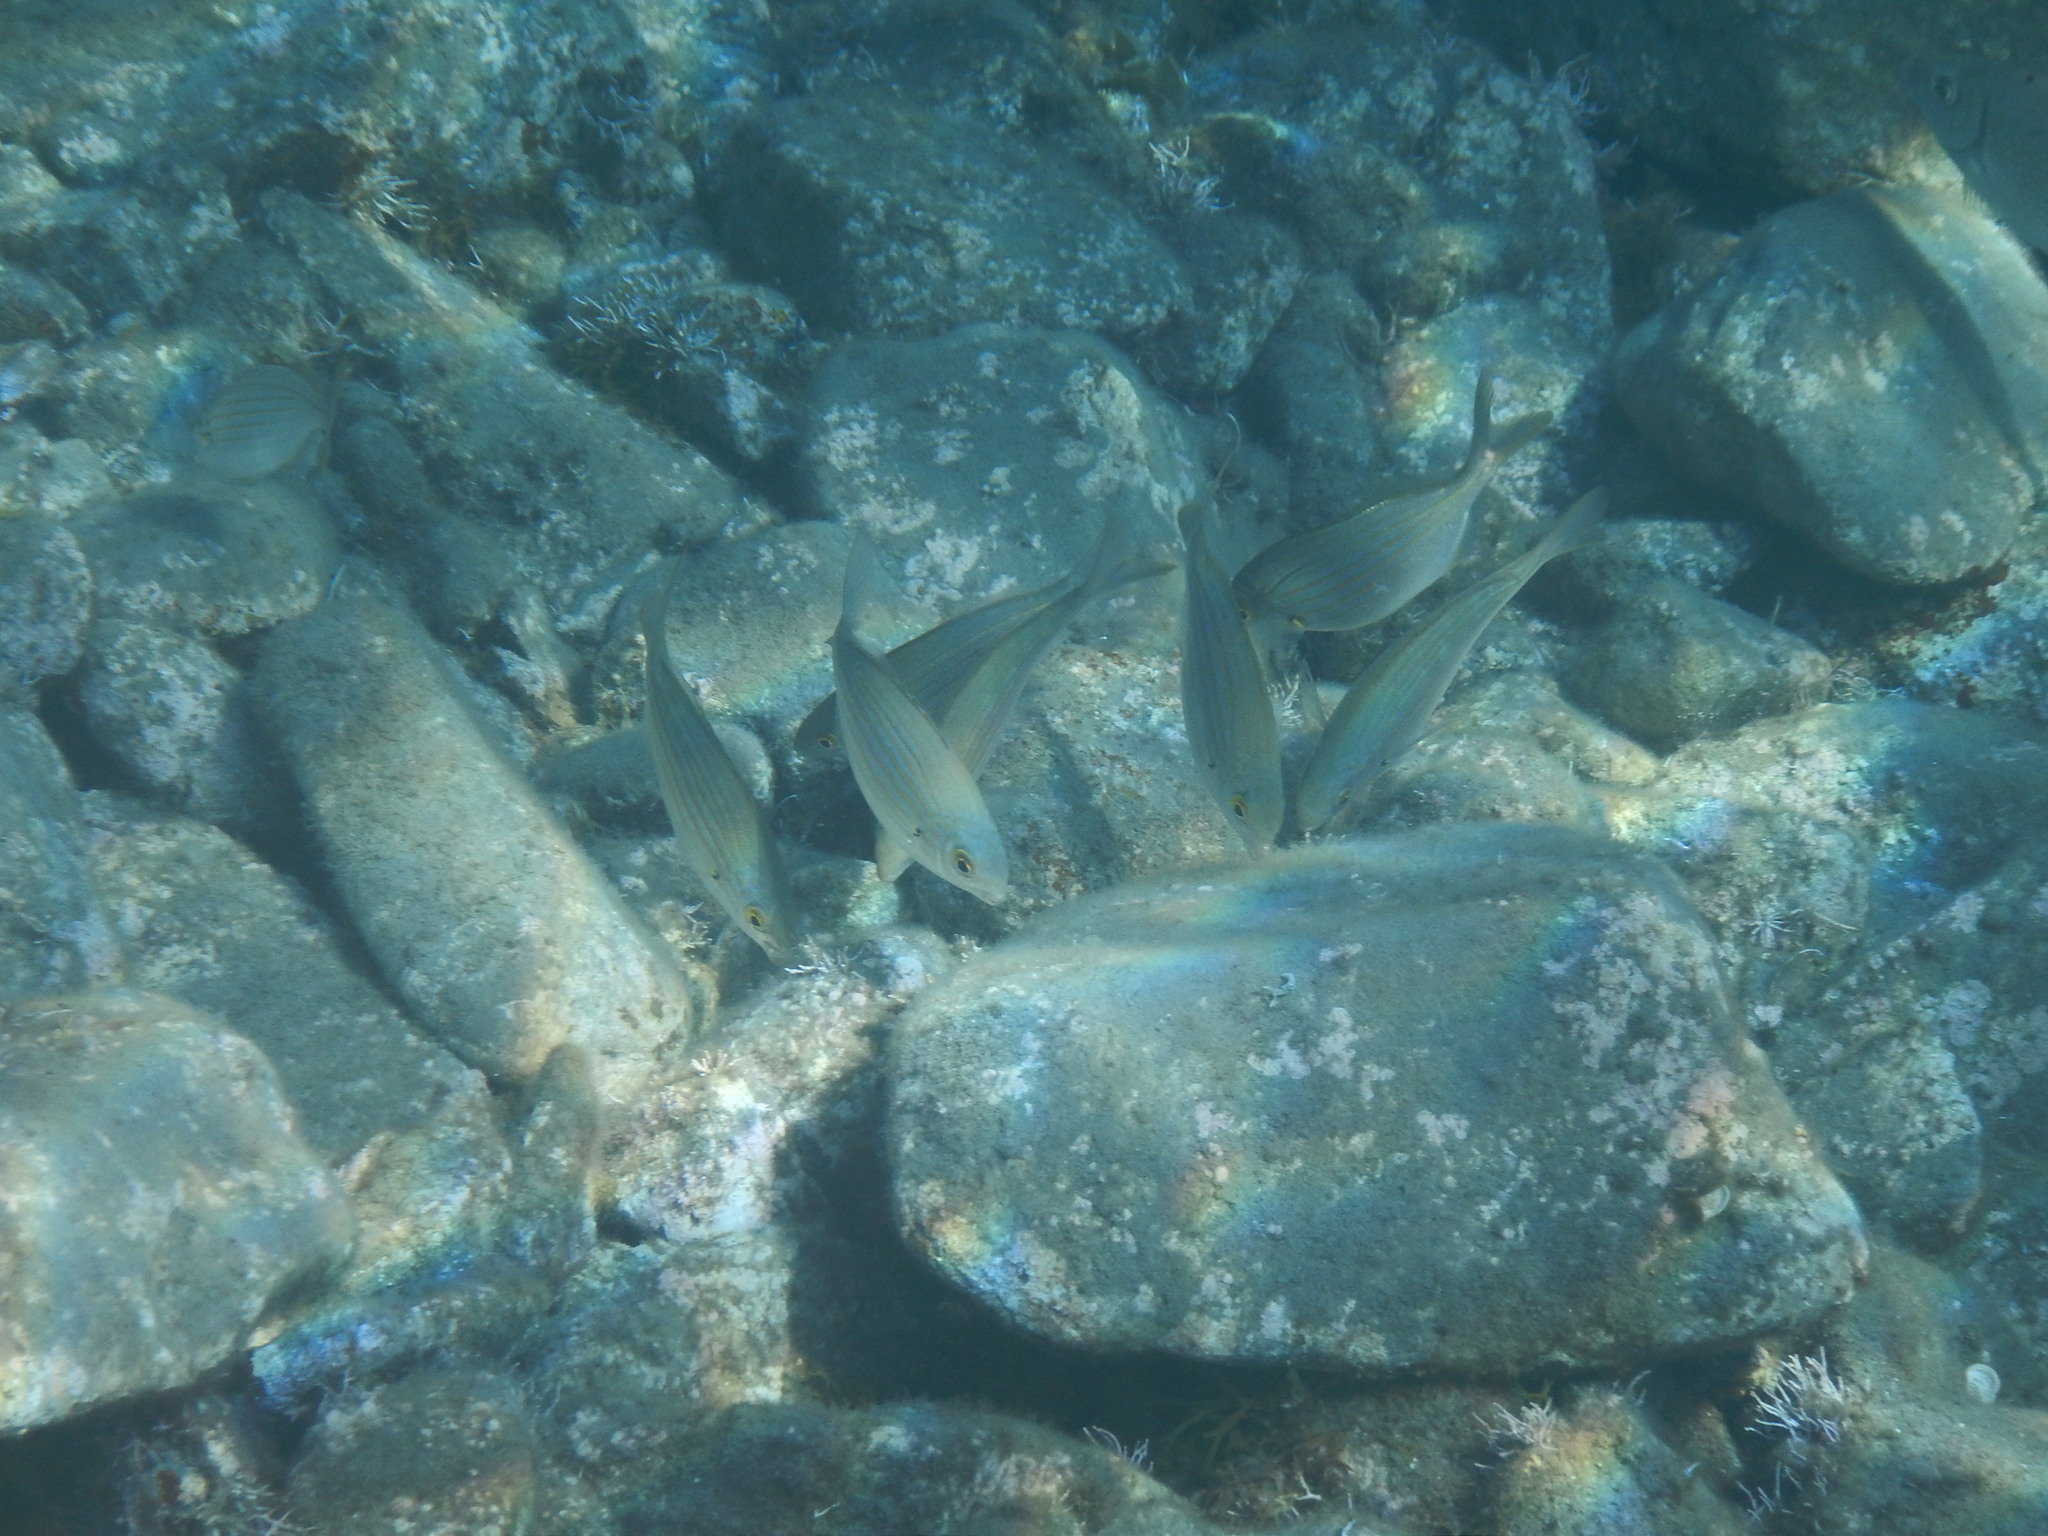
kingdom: Animalia
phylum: Chordata
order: Perciformes
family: Sparidae
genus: Sarpa
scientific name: Sarpa salpa
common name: Salema
